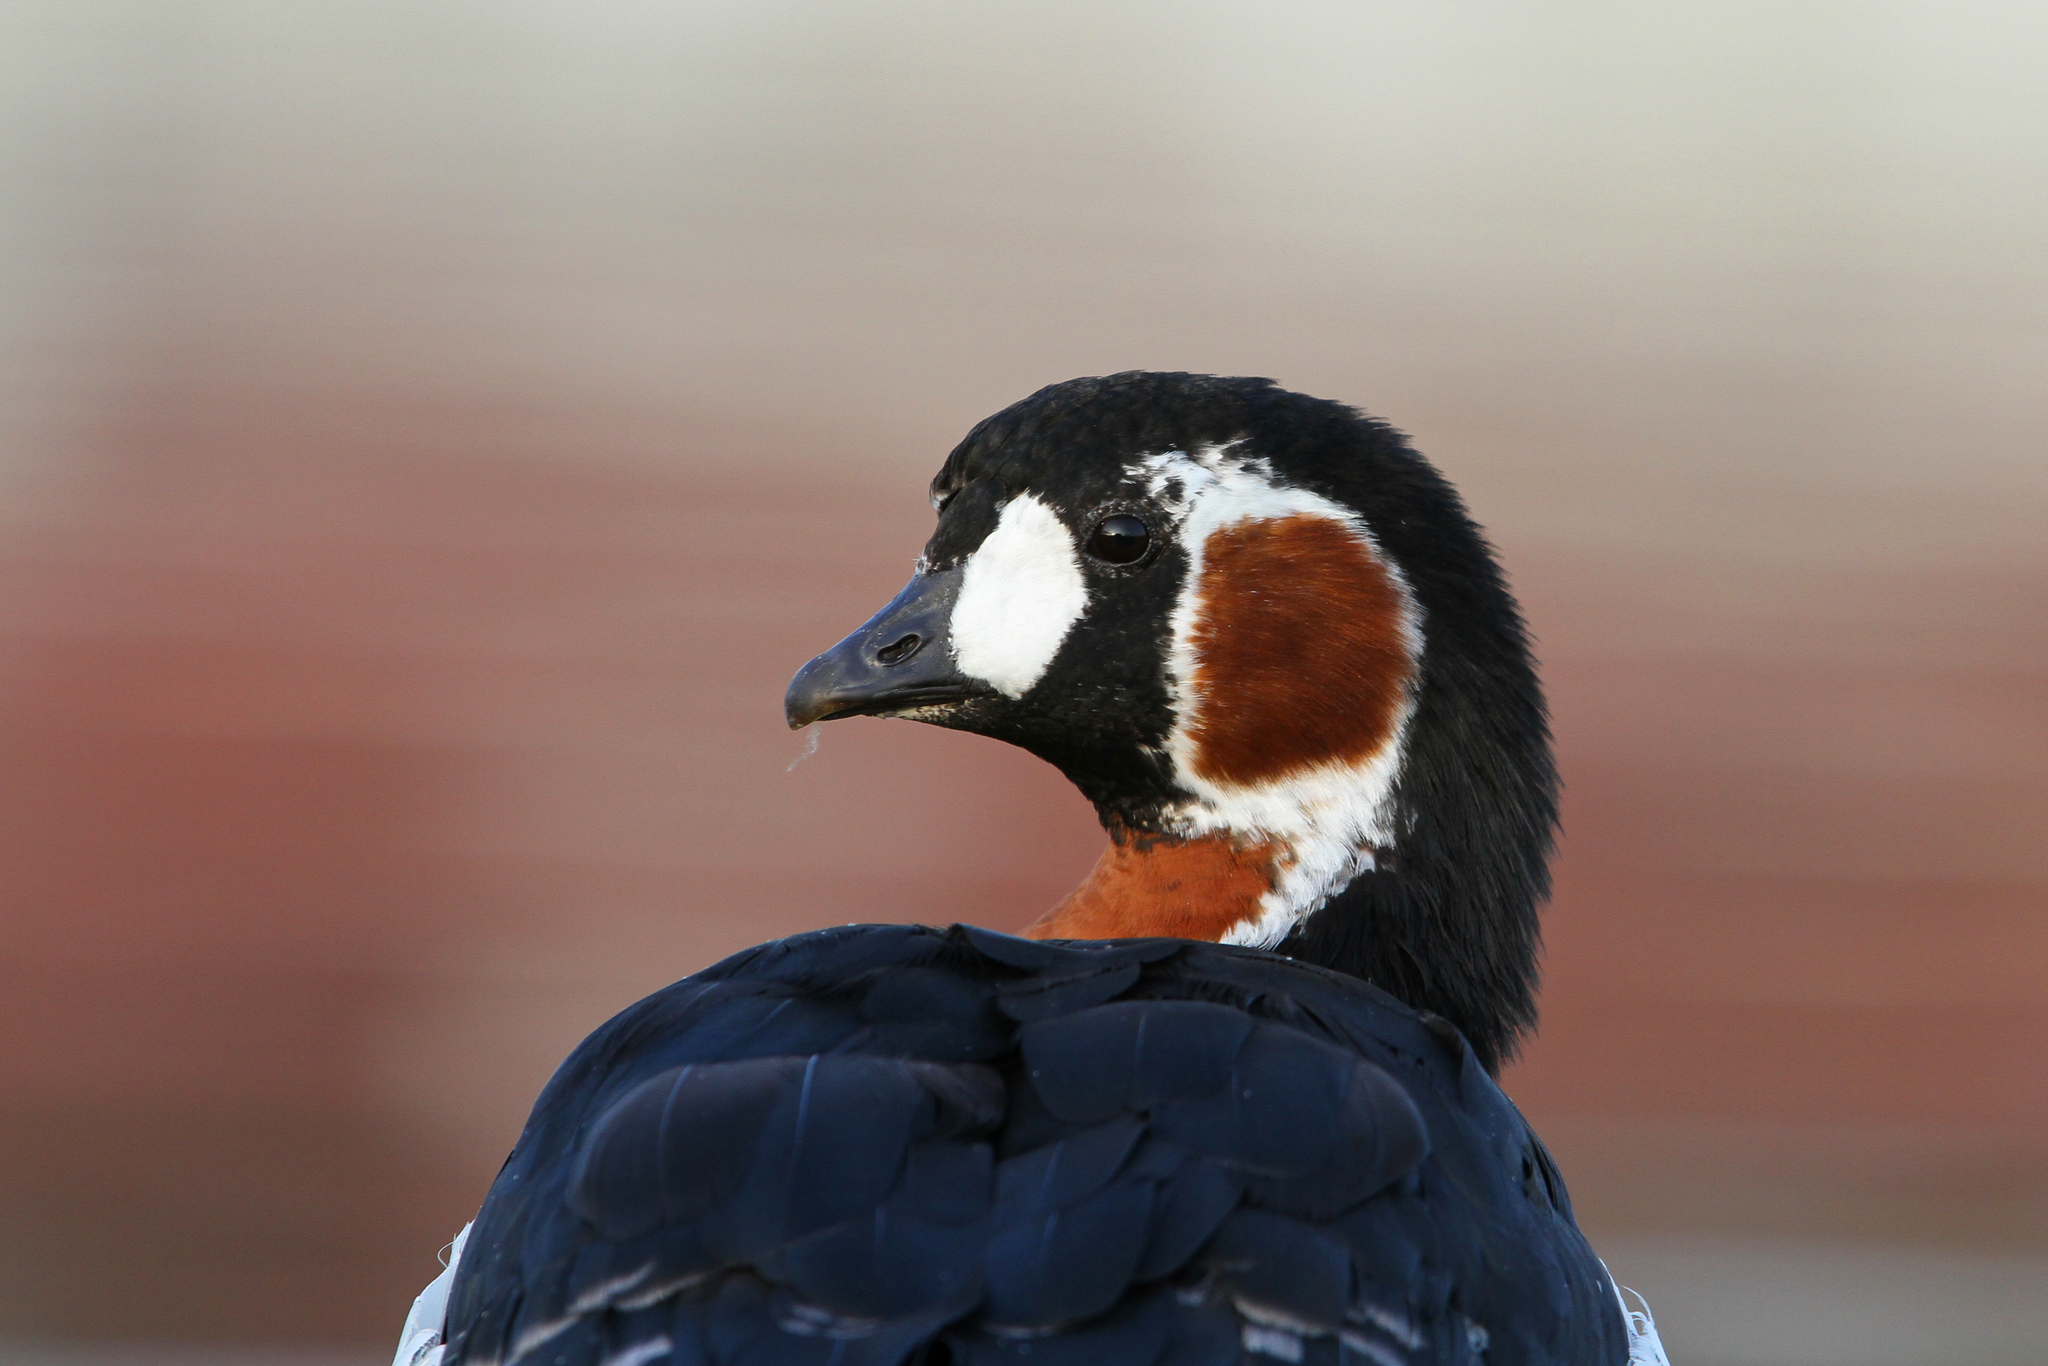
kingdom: Animalia
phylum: Chordata
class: Aves
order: Anseriformes
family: Anatidae
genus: Branta
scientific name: Branta ruficollis
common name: Red-breasted goose
